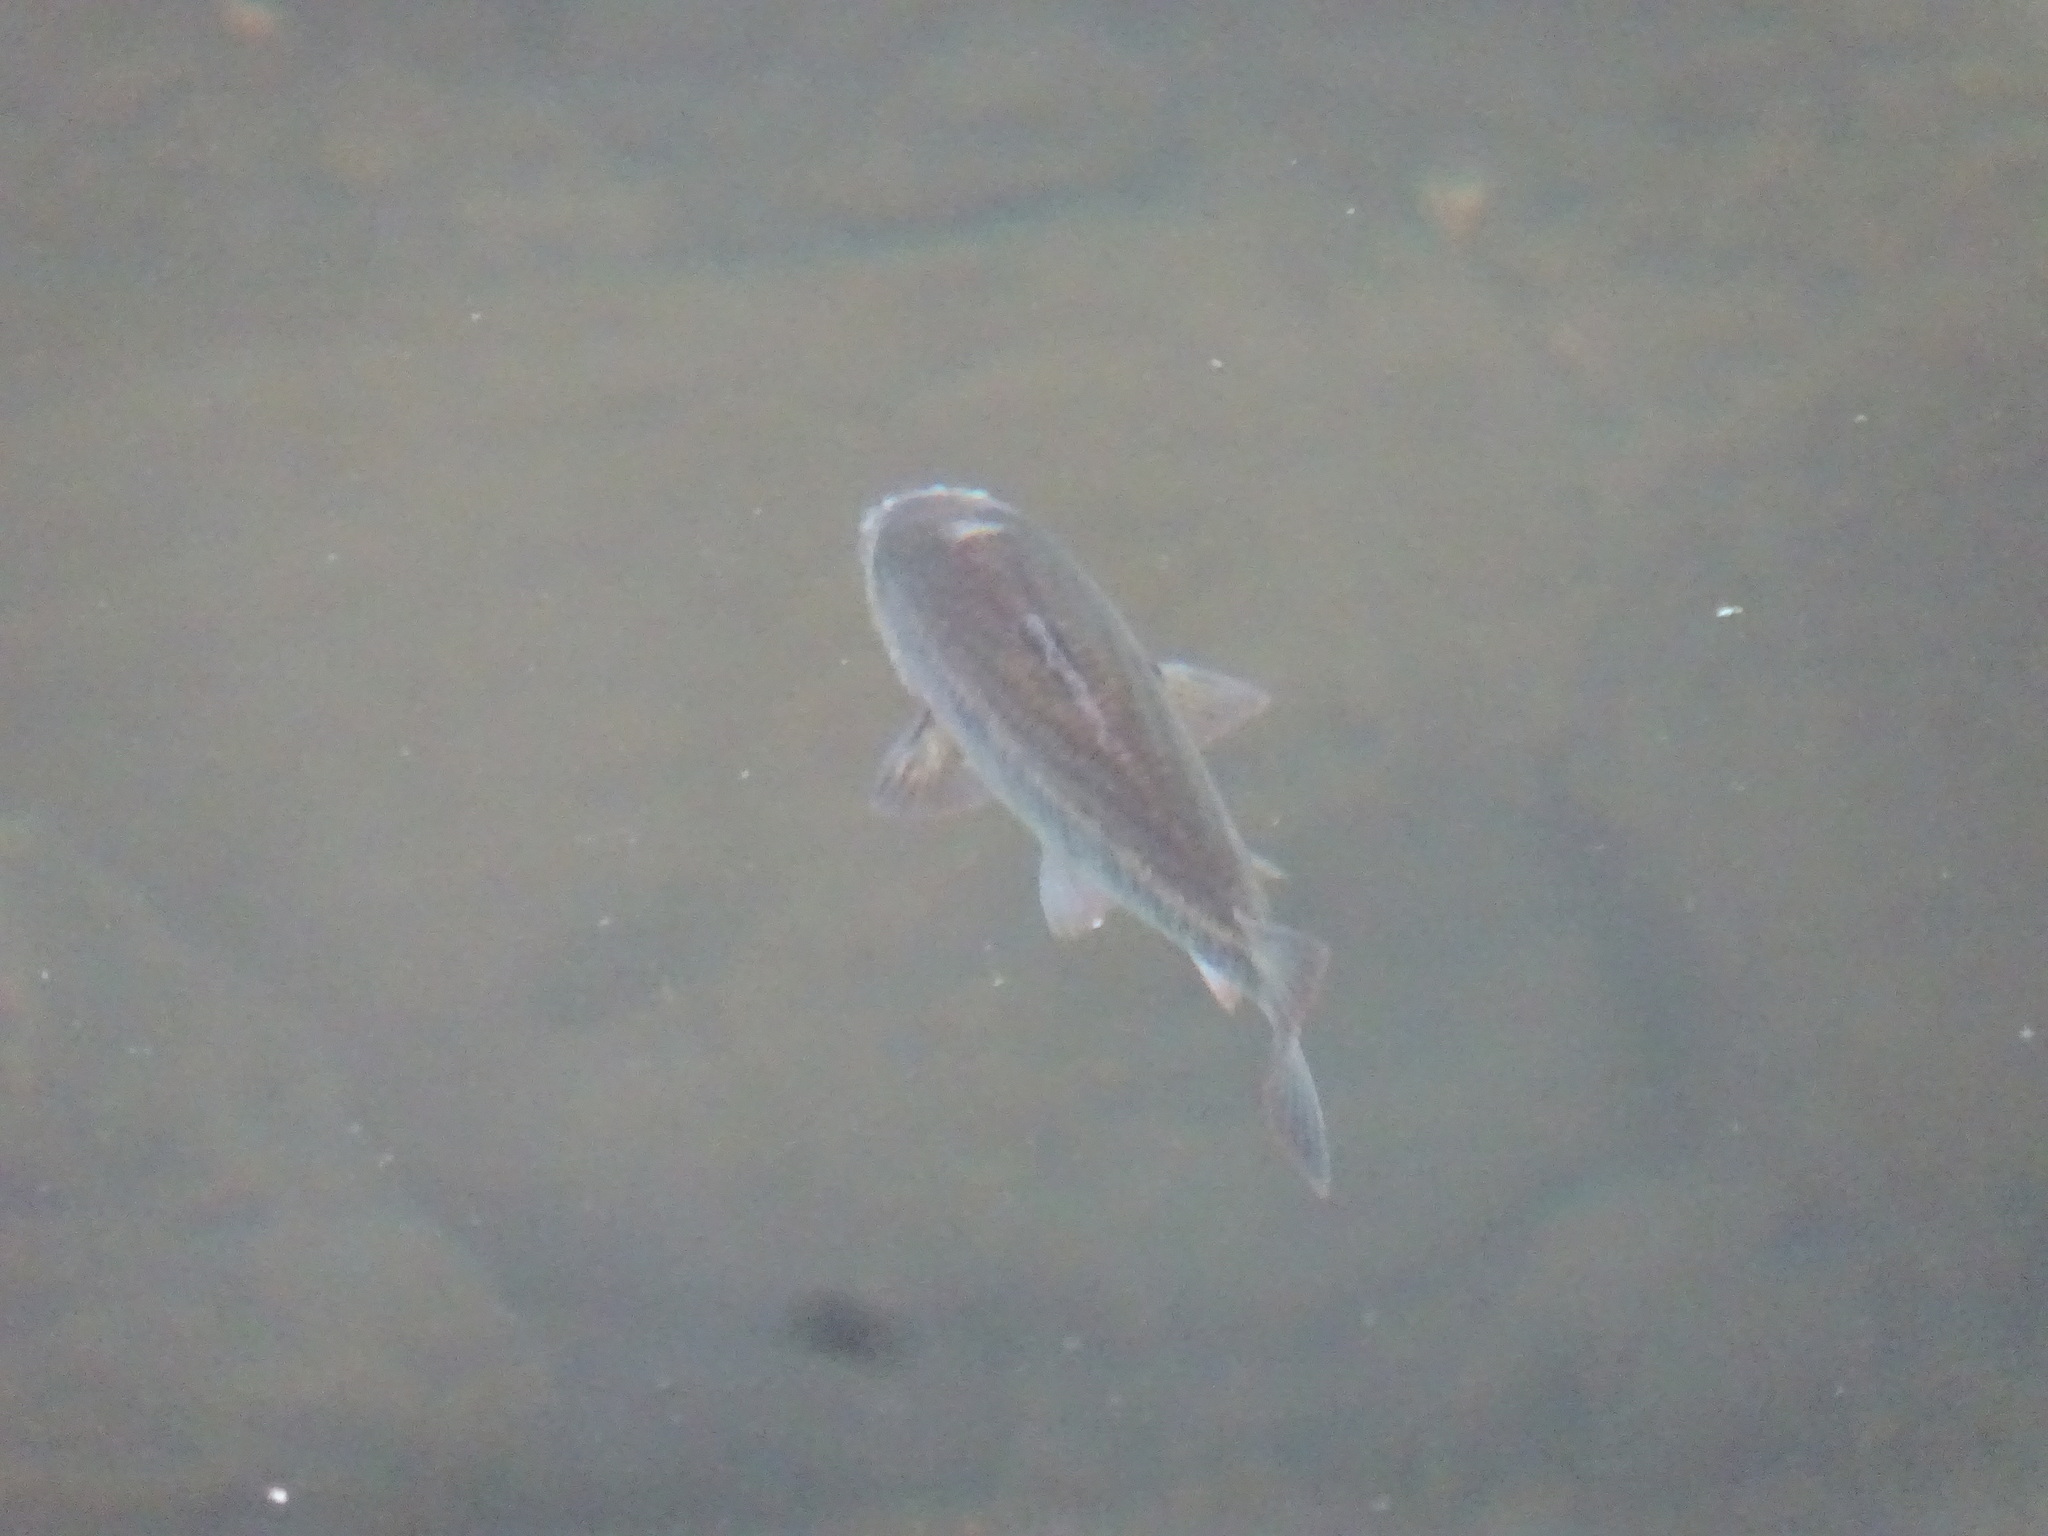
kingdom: Animalia
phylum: Chordata
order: Cypriniformes
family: Cyprinidae
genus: Luxilus
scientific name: Luxilus chrysocephalus
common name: Striped shiner
